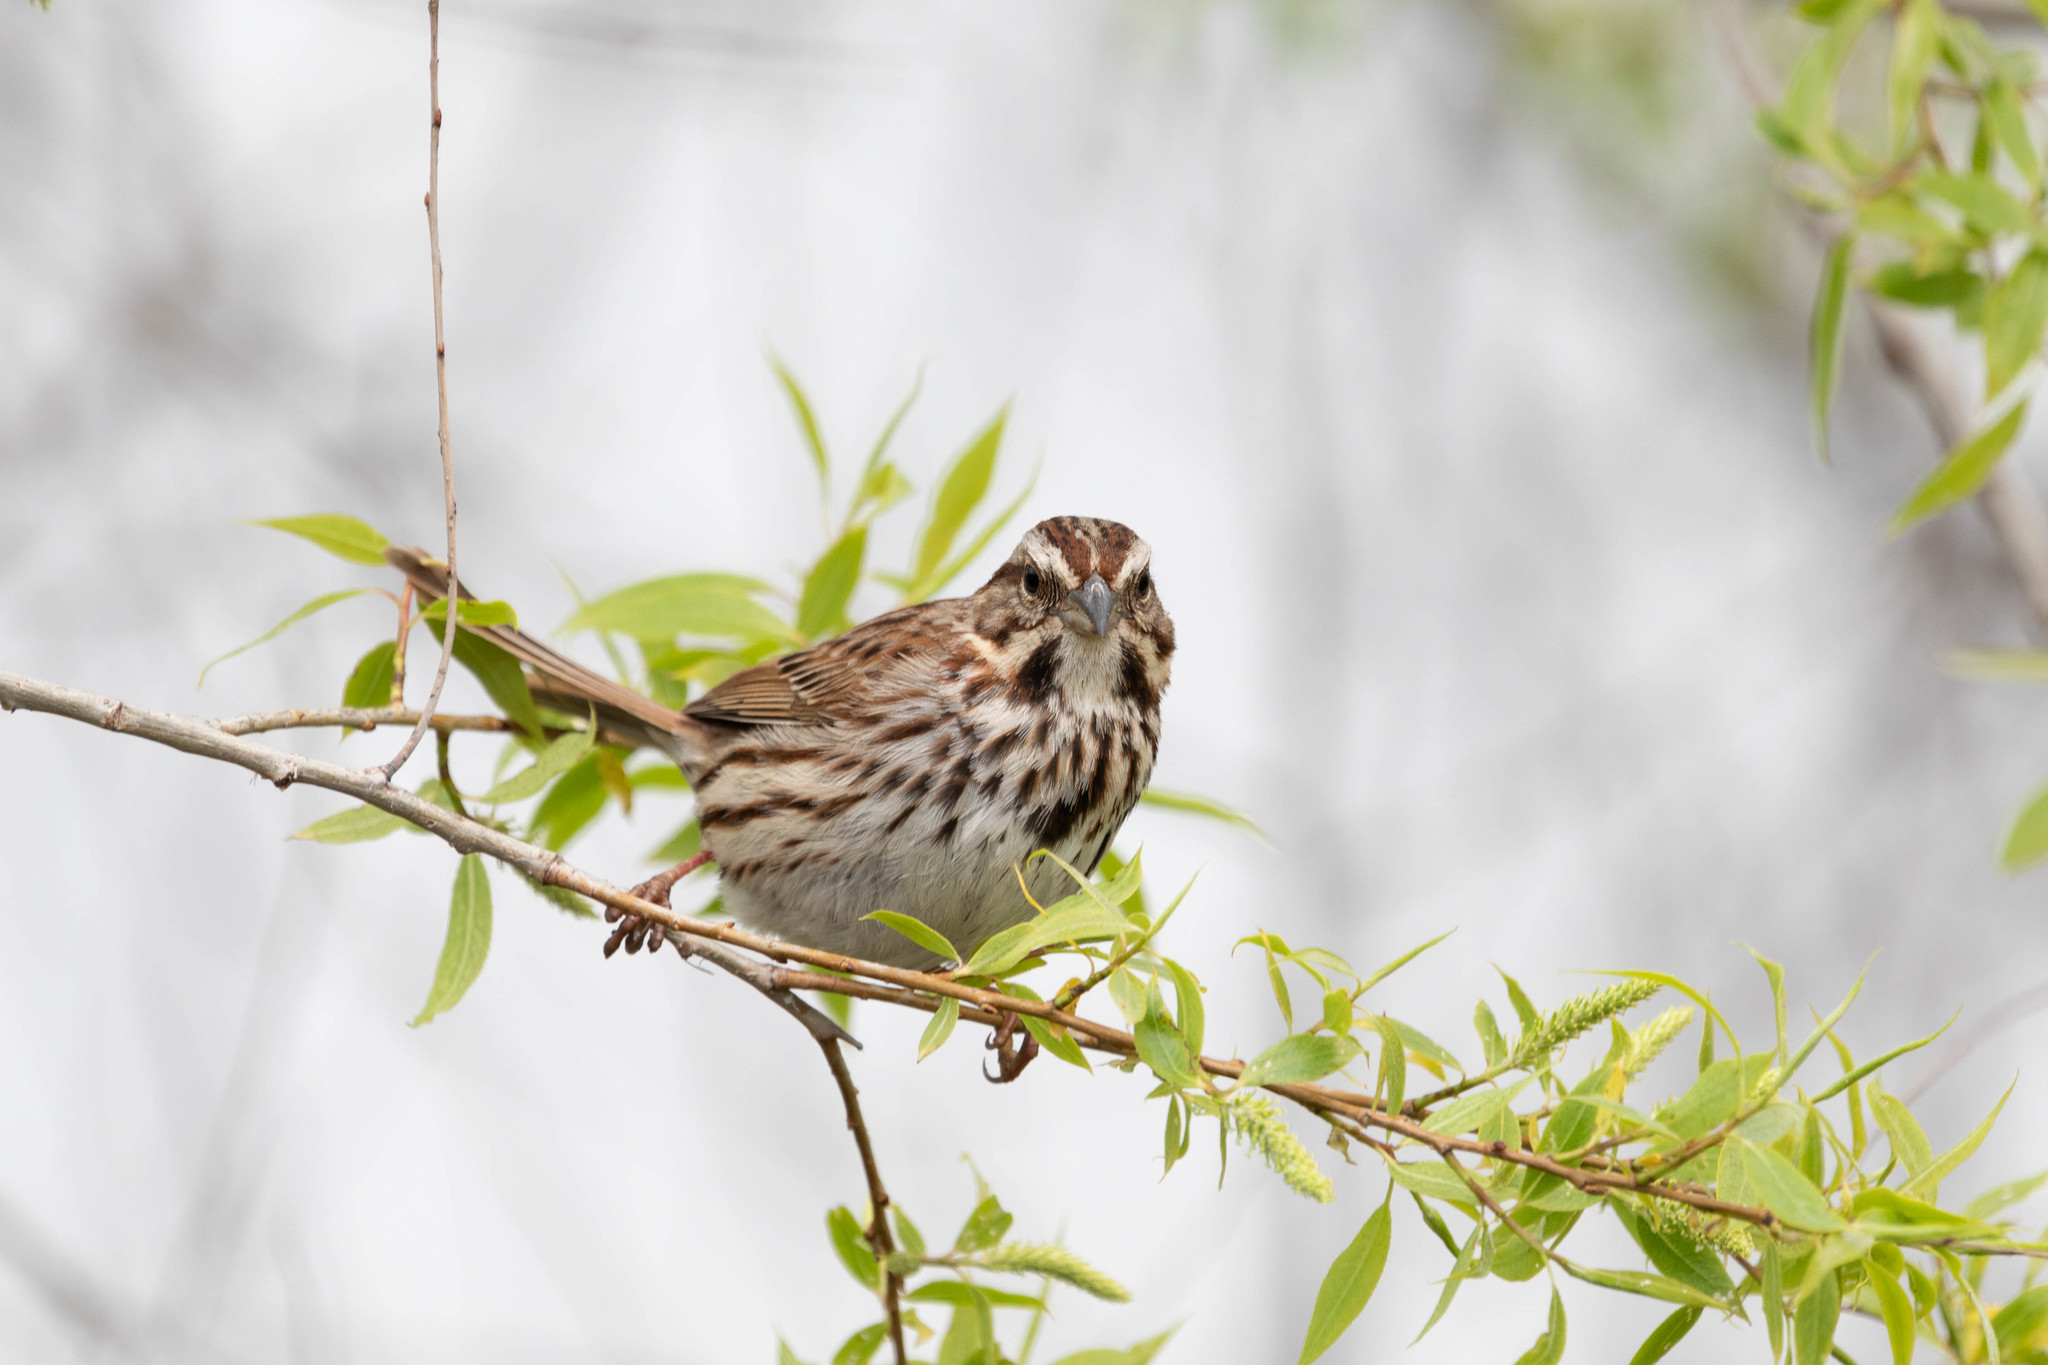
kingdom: Animalia
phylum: Chordata
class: Aves
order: Passeriformes
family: Passerellidae
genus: Melospiza
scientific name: Melospiza melodia
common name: Song sparrow
